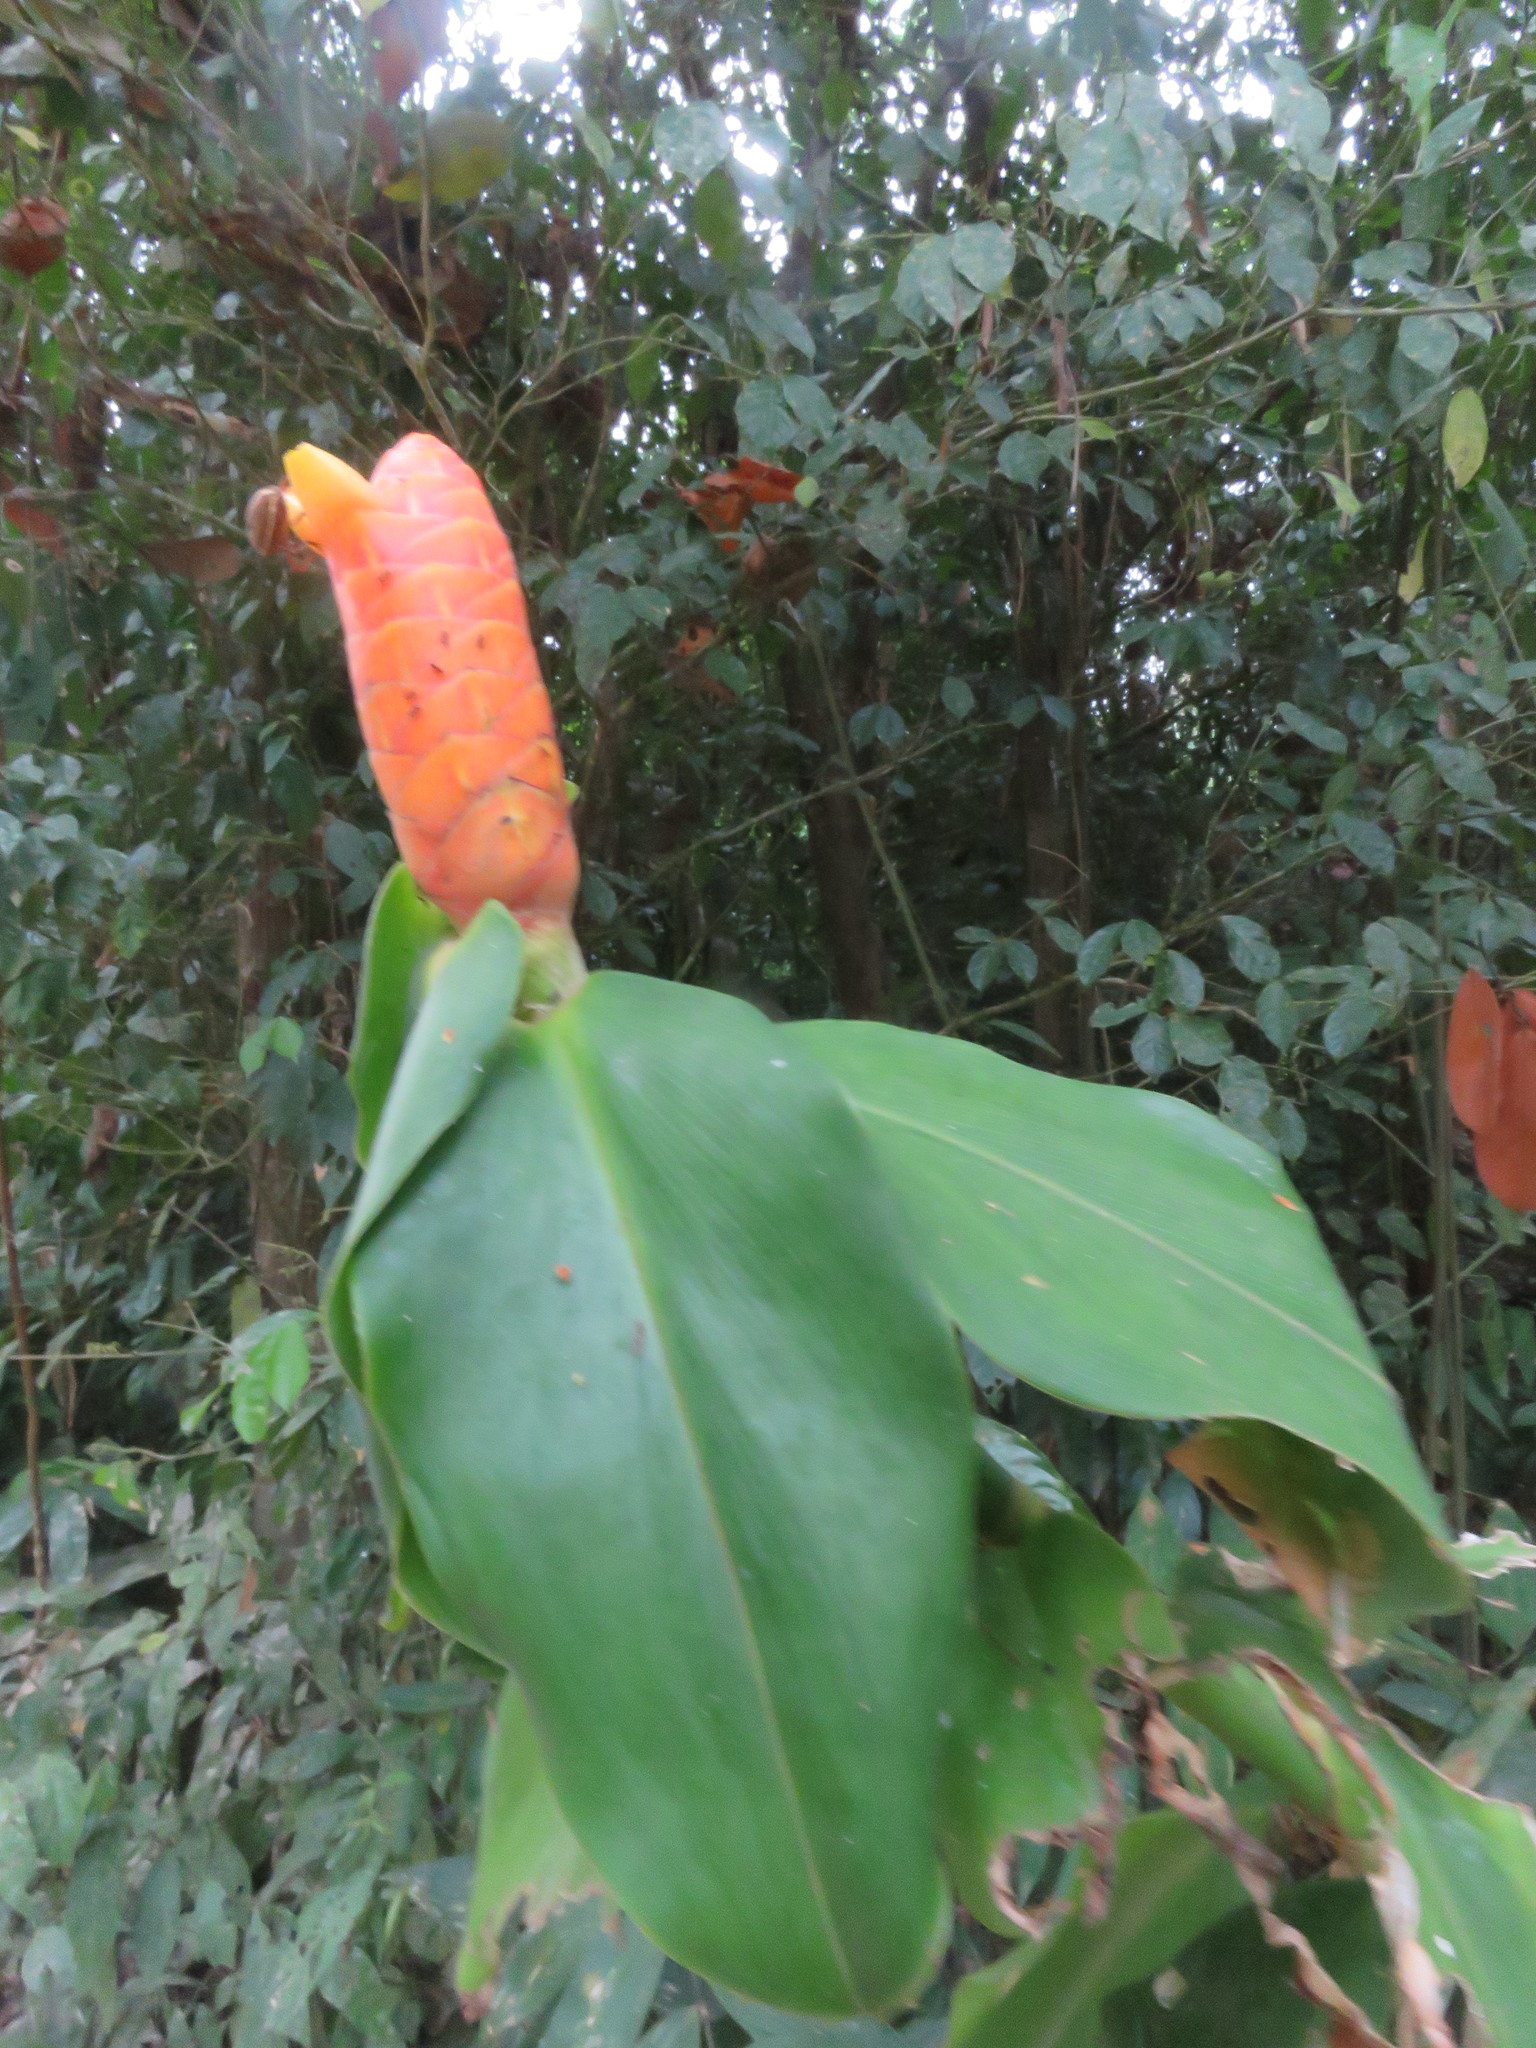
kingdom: Plantae
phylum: Tracheophyta
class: Liliopsida
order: Zingiberales
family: Costaceae
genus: Costus
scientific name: Costus scaber
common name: Spiral head ginger
